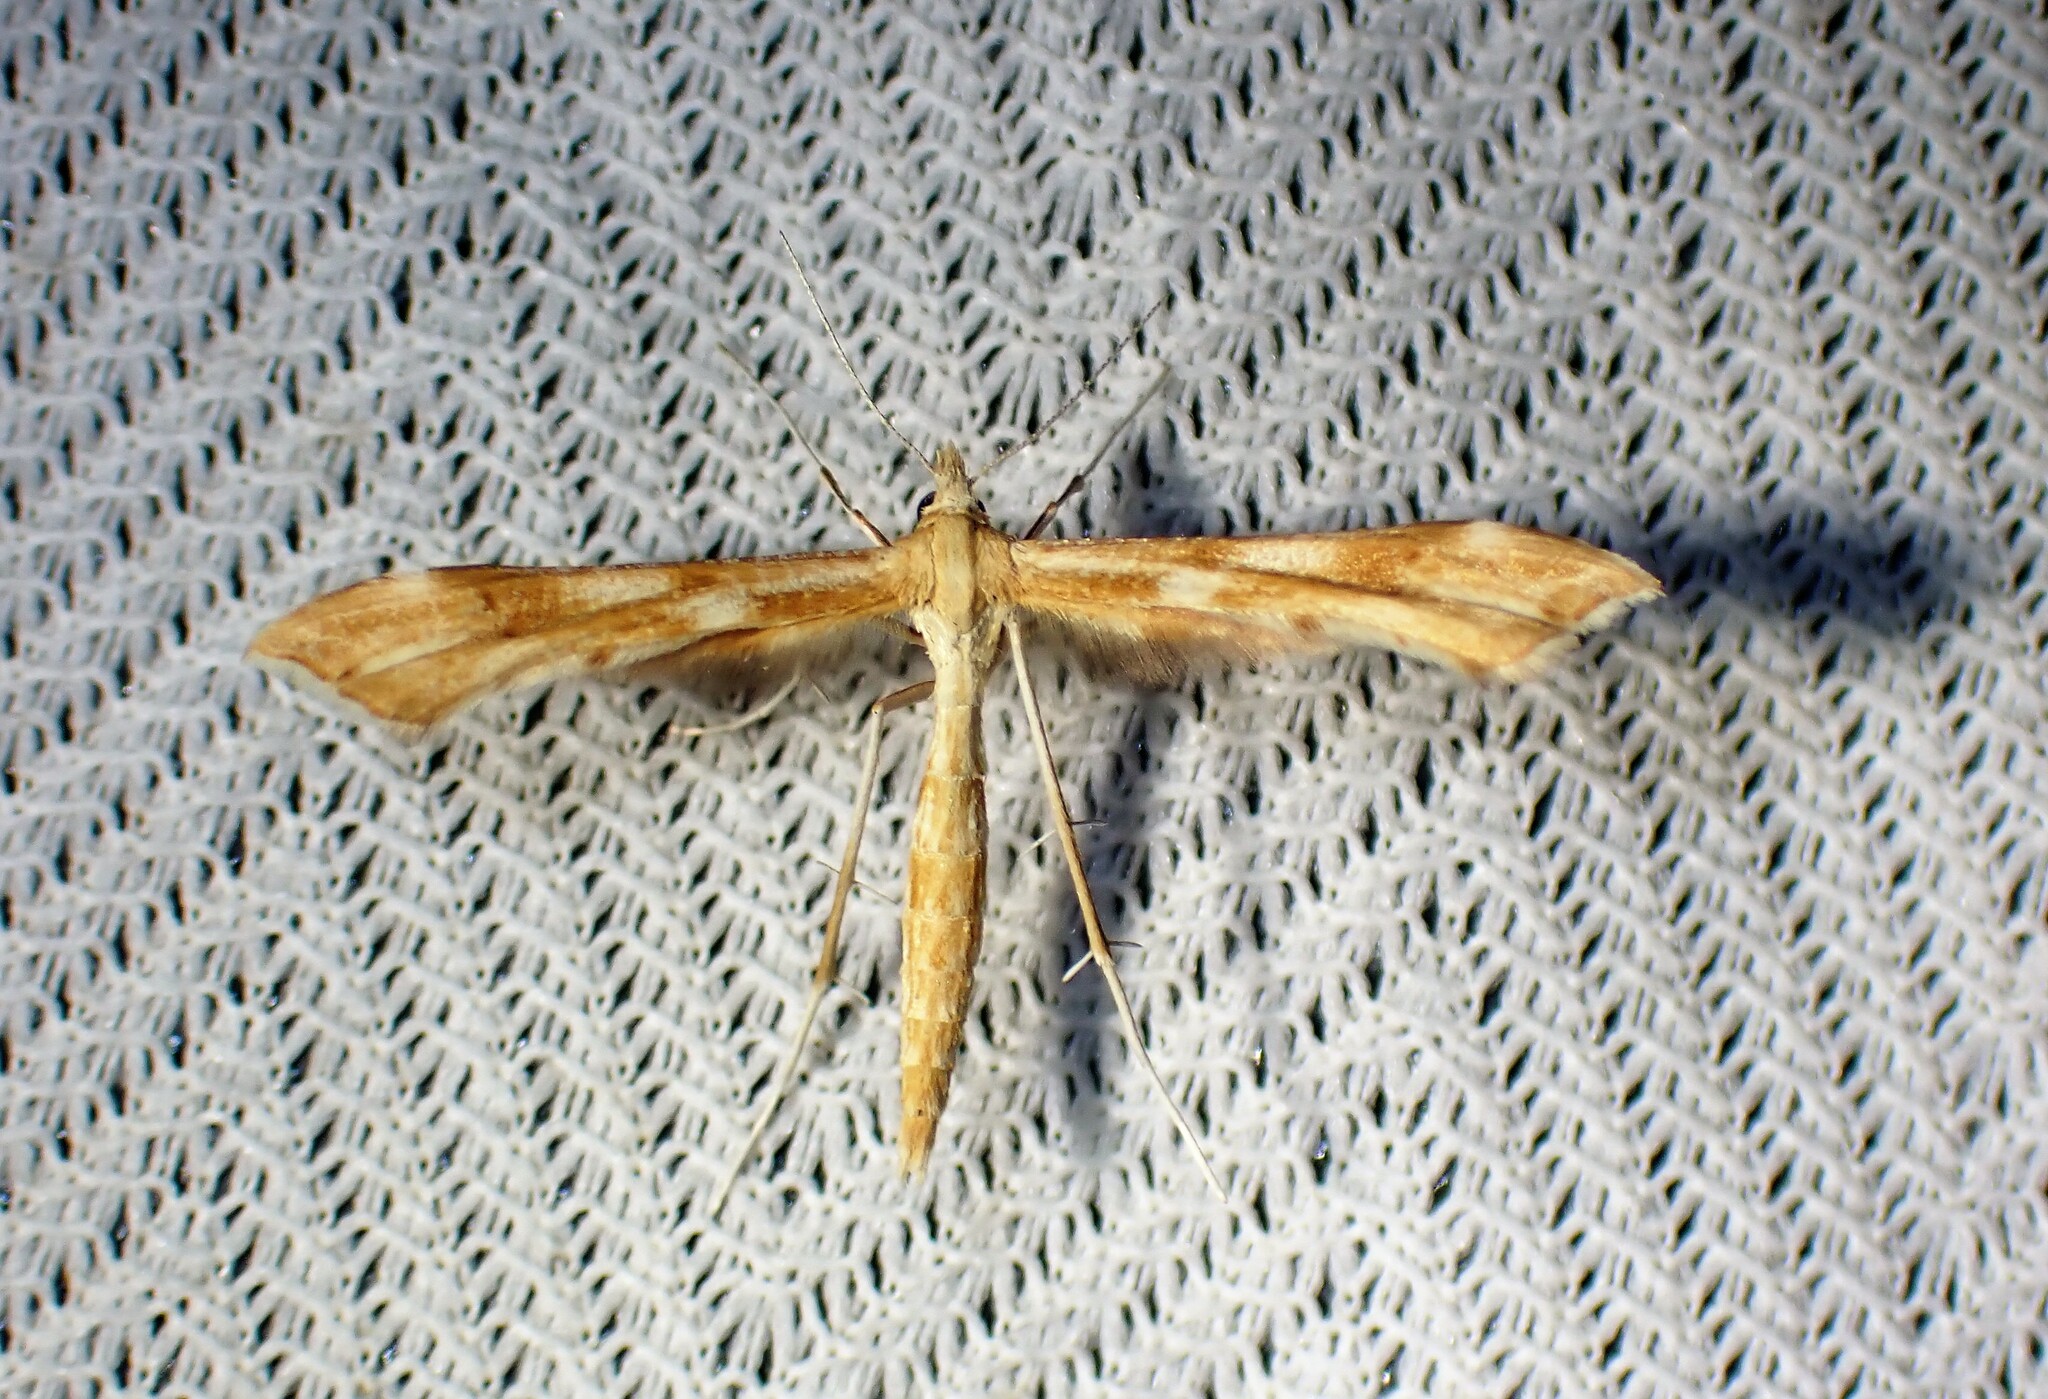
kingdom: Animalia
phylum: Arthropoda
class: Insecta
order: Lepidoptera
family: Pterophoridae
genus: Gillmeria
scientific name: Gillmeria pallidactyla
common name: Yarrow plume
